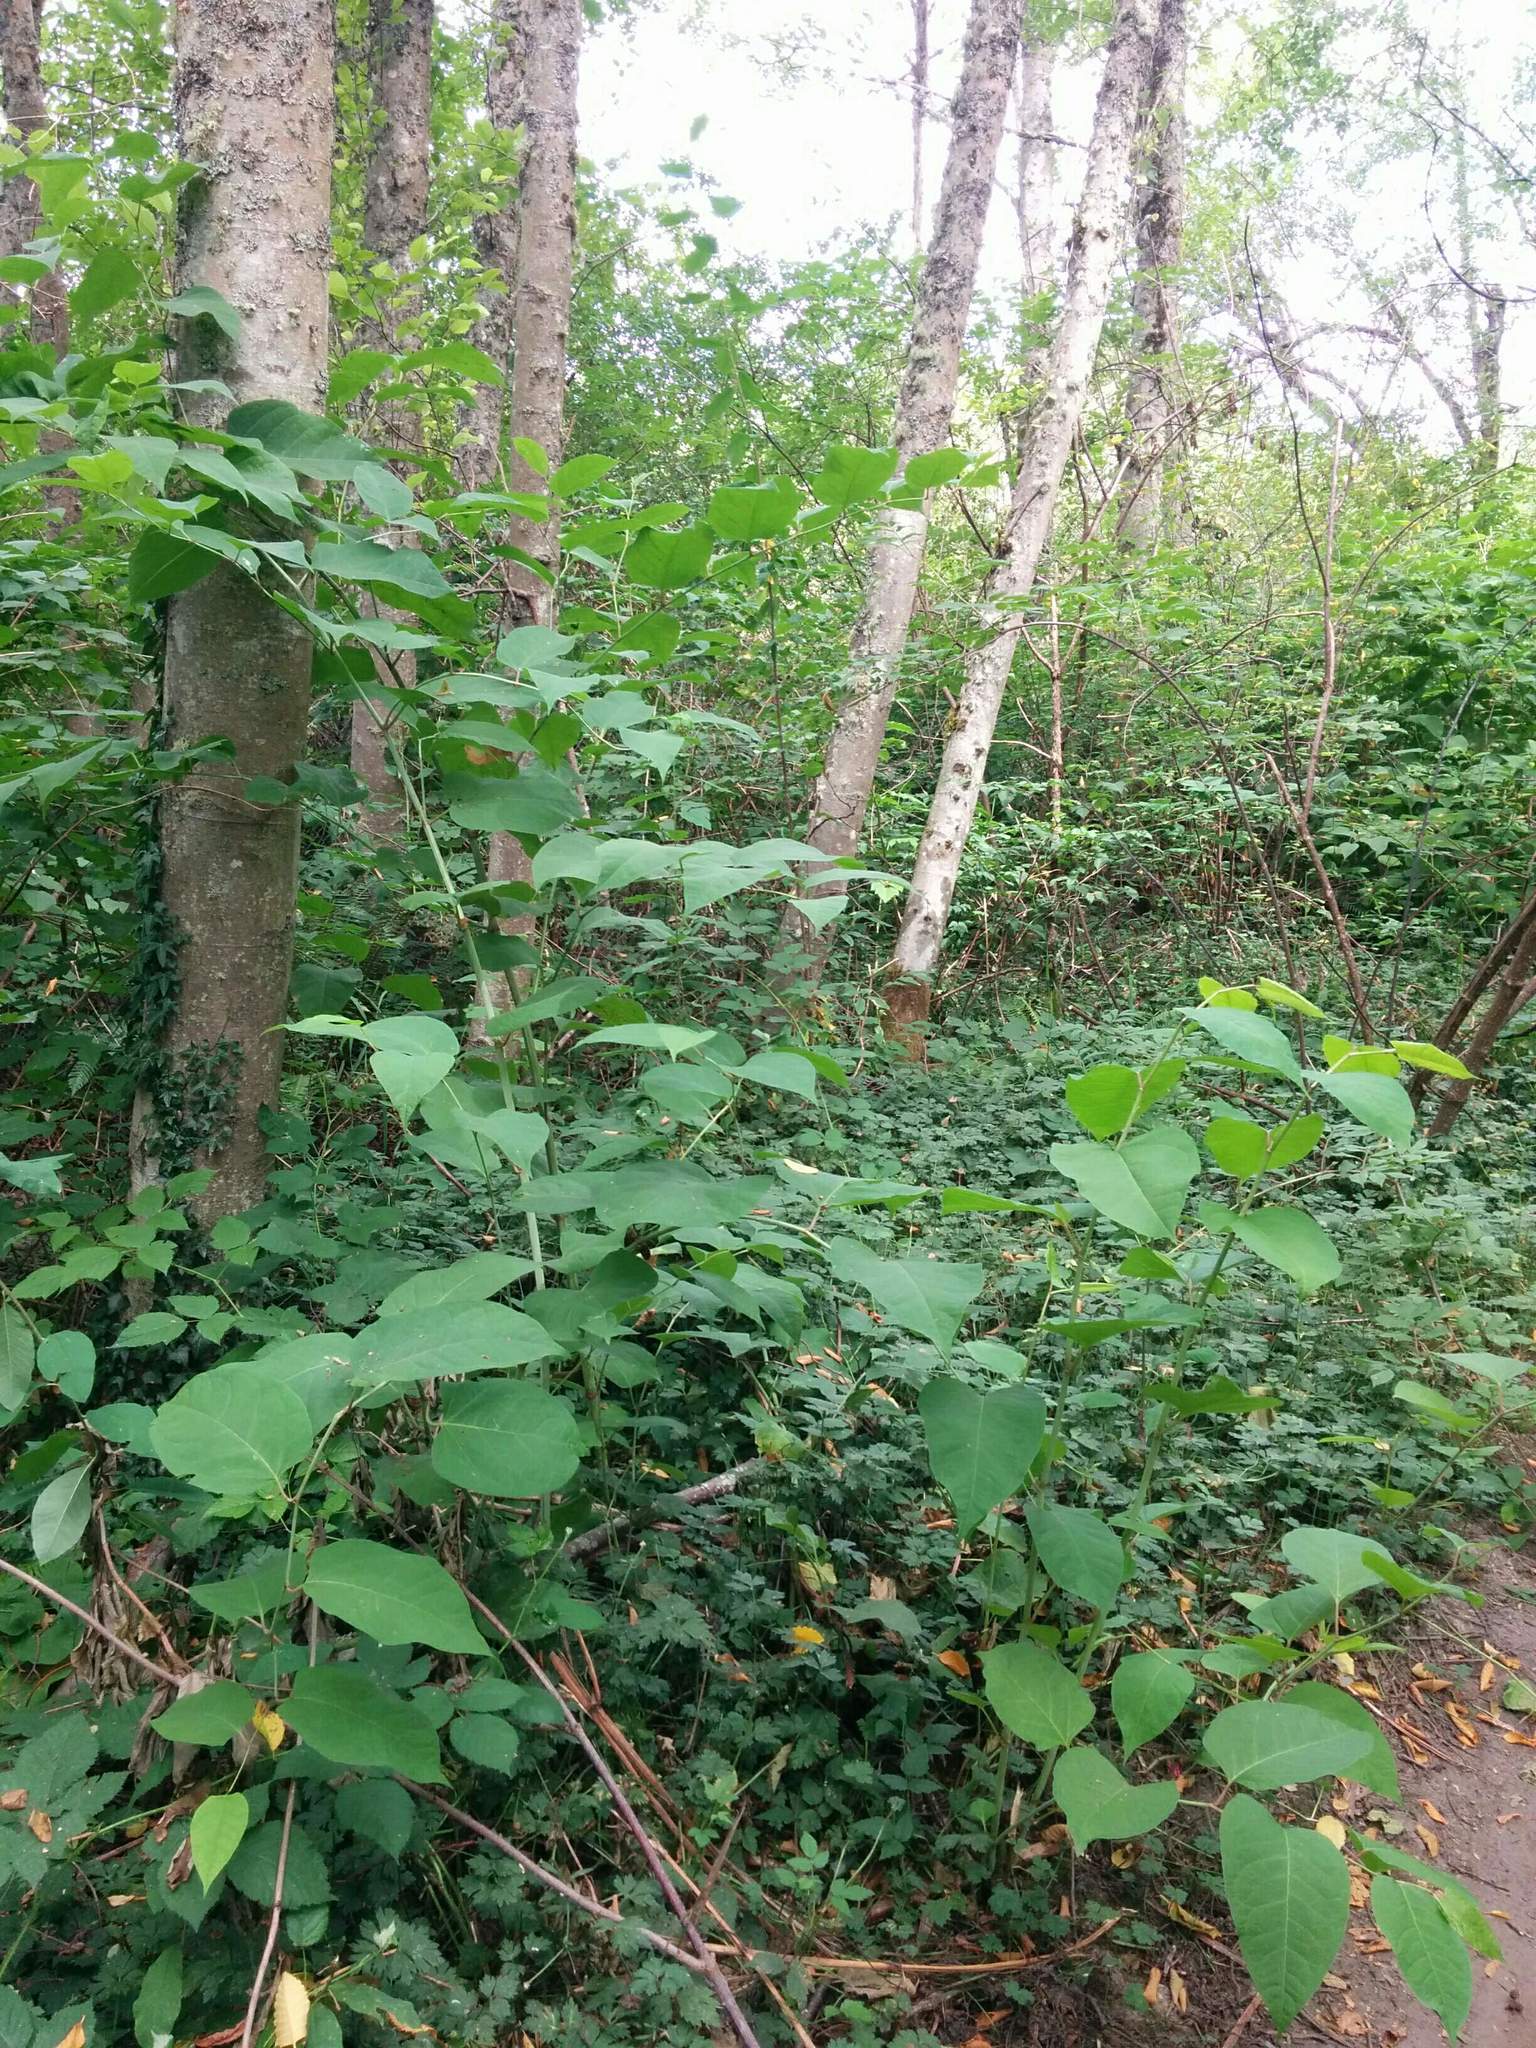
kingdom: Plantae
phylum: Tracheophyta
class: Magnoliopsida
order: Caryophyllales
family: Polygonaceae
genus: Reynoutria
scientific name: Reynoutria bohemica
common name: Bohemian knotweed
